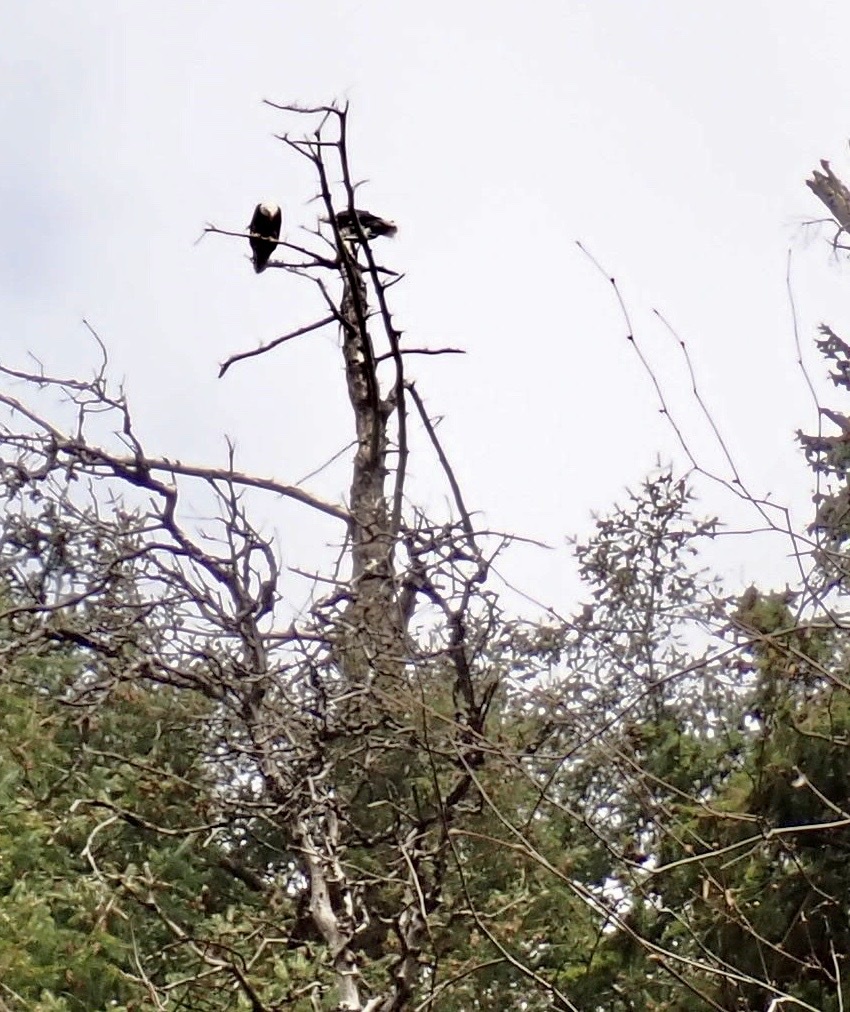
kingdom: Animalia
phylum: Chordata
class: Aves
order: Accipitriformes
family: Accipitridae
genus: Haliaeetus
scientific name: Haliaeetus leucocephalus
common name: Bald eagle
